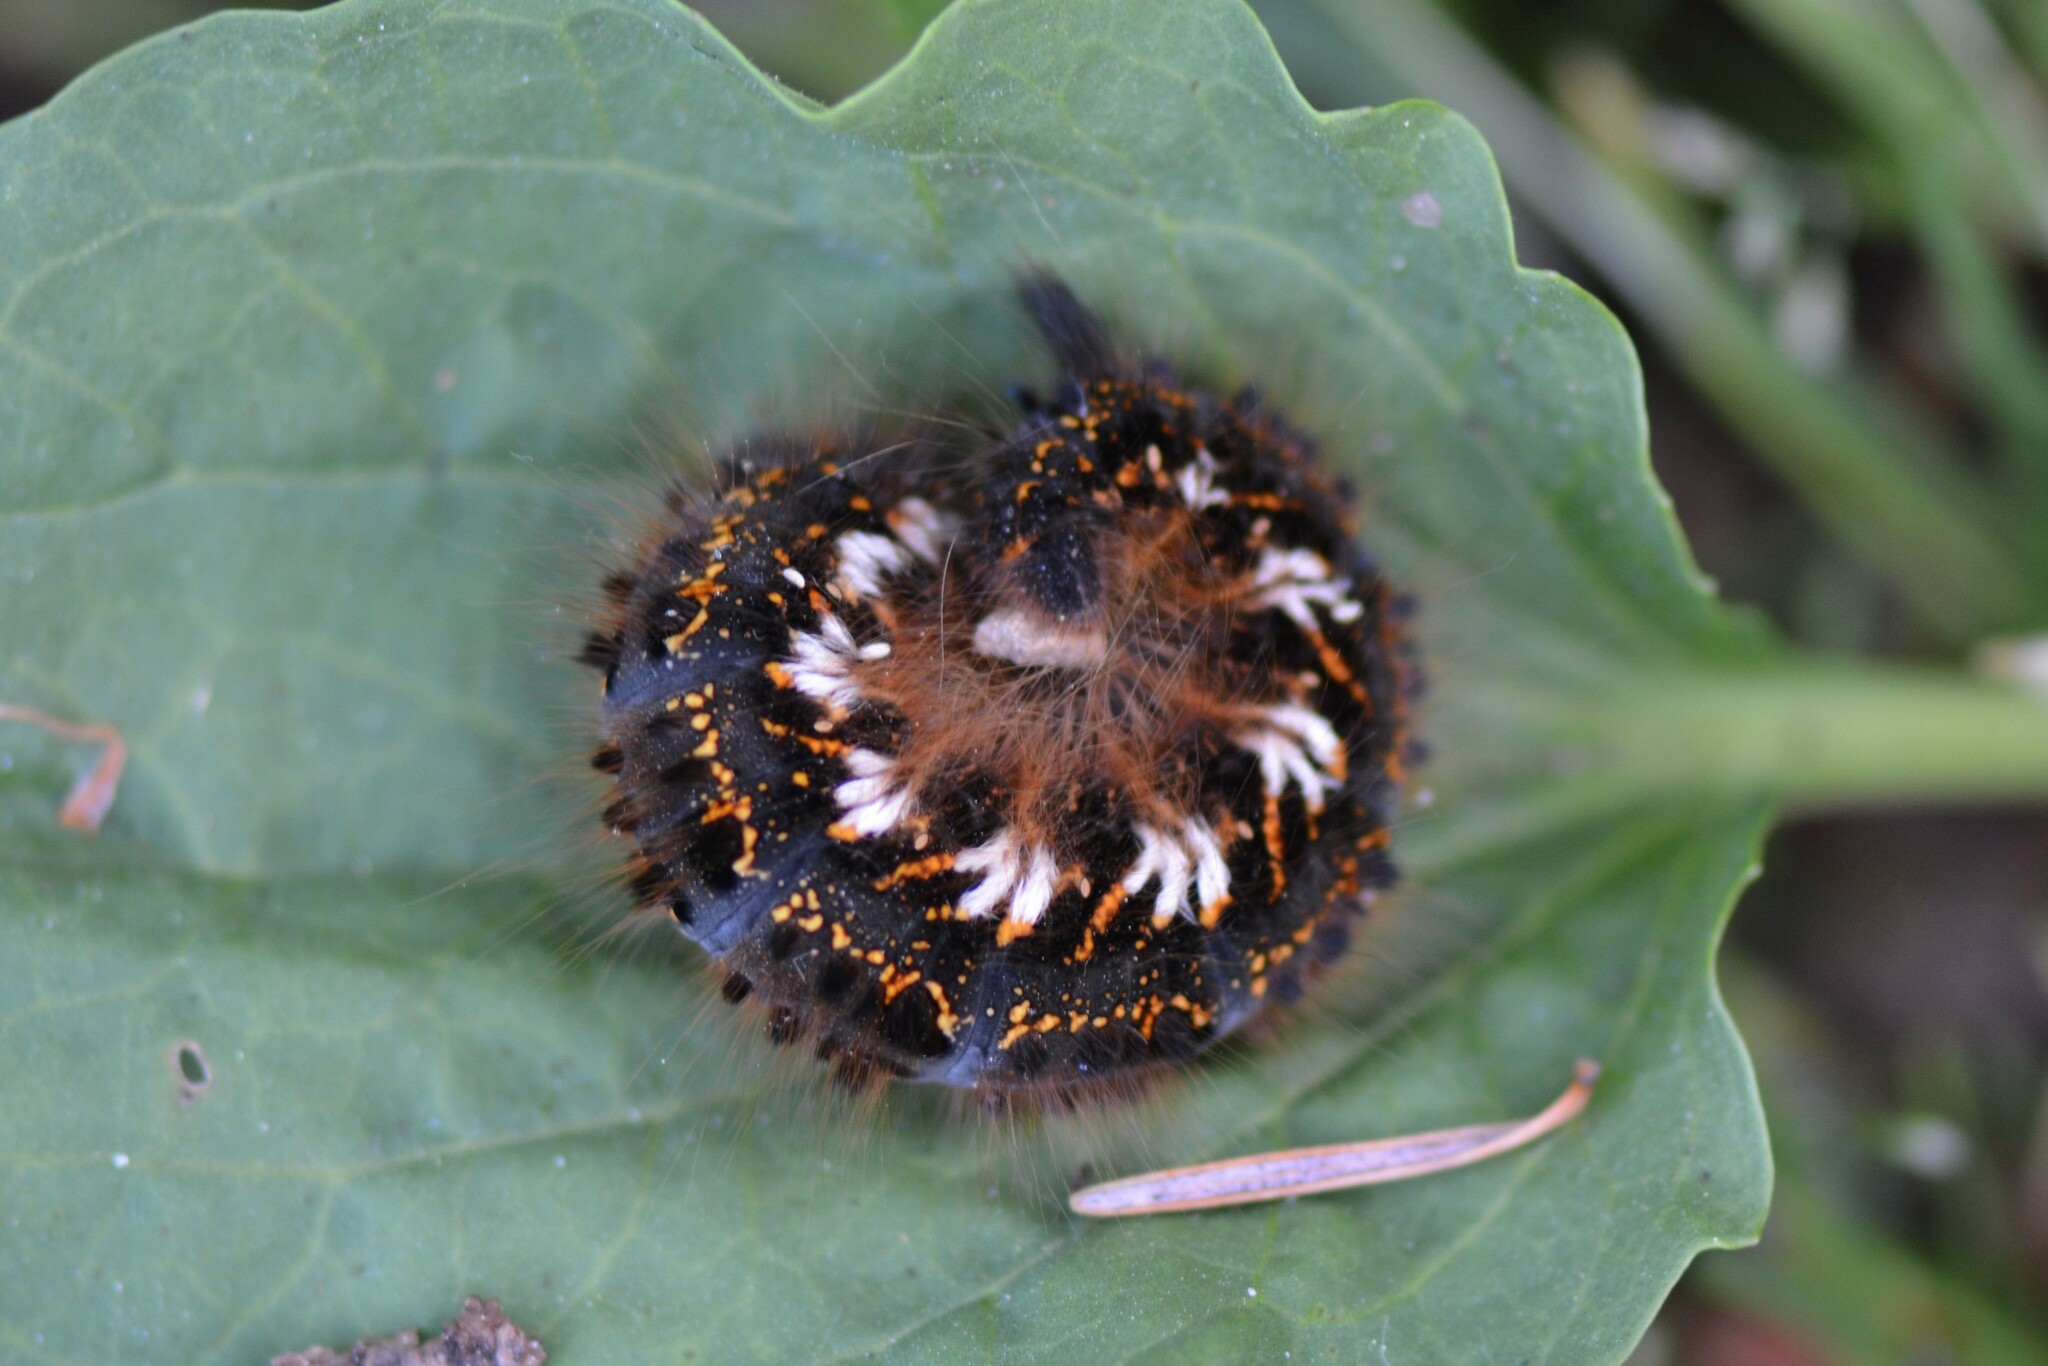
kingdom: Animalia
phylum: Arthropoda
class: Insecta
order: Lepidoptera
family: Lasiocampidae
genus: Euthrix
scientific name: Euthrix potatoria
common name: Drinker
